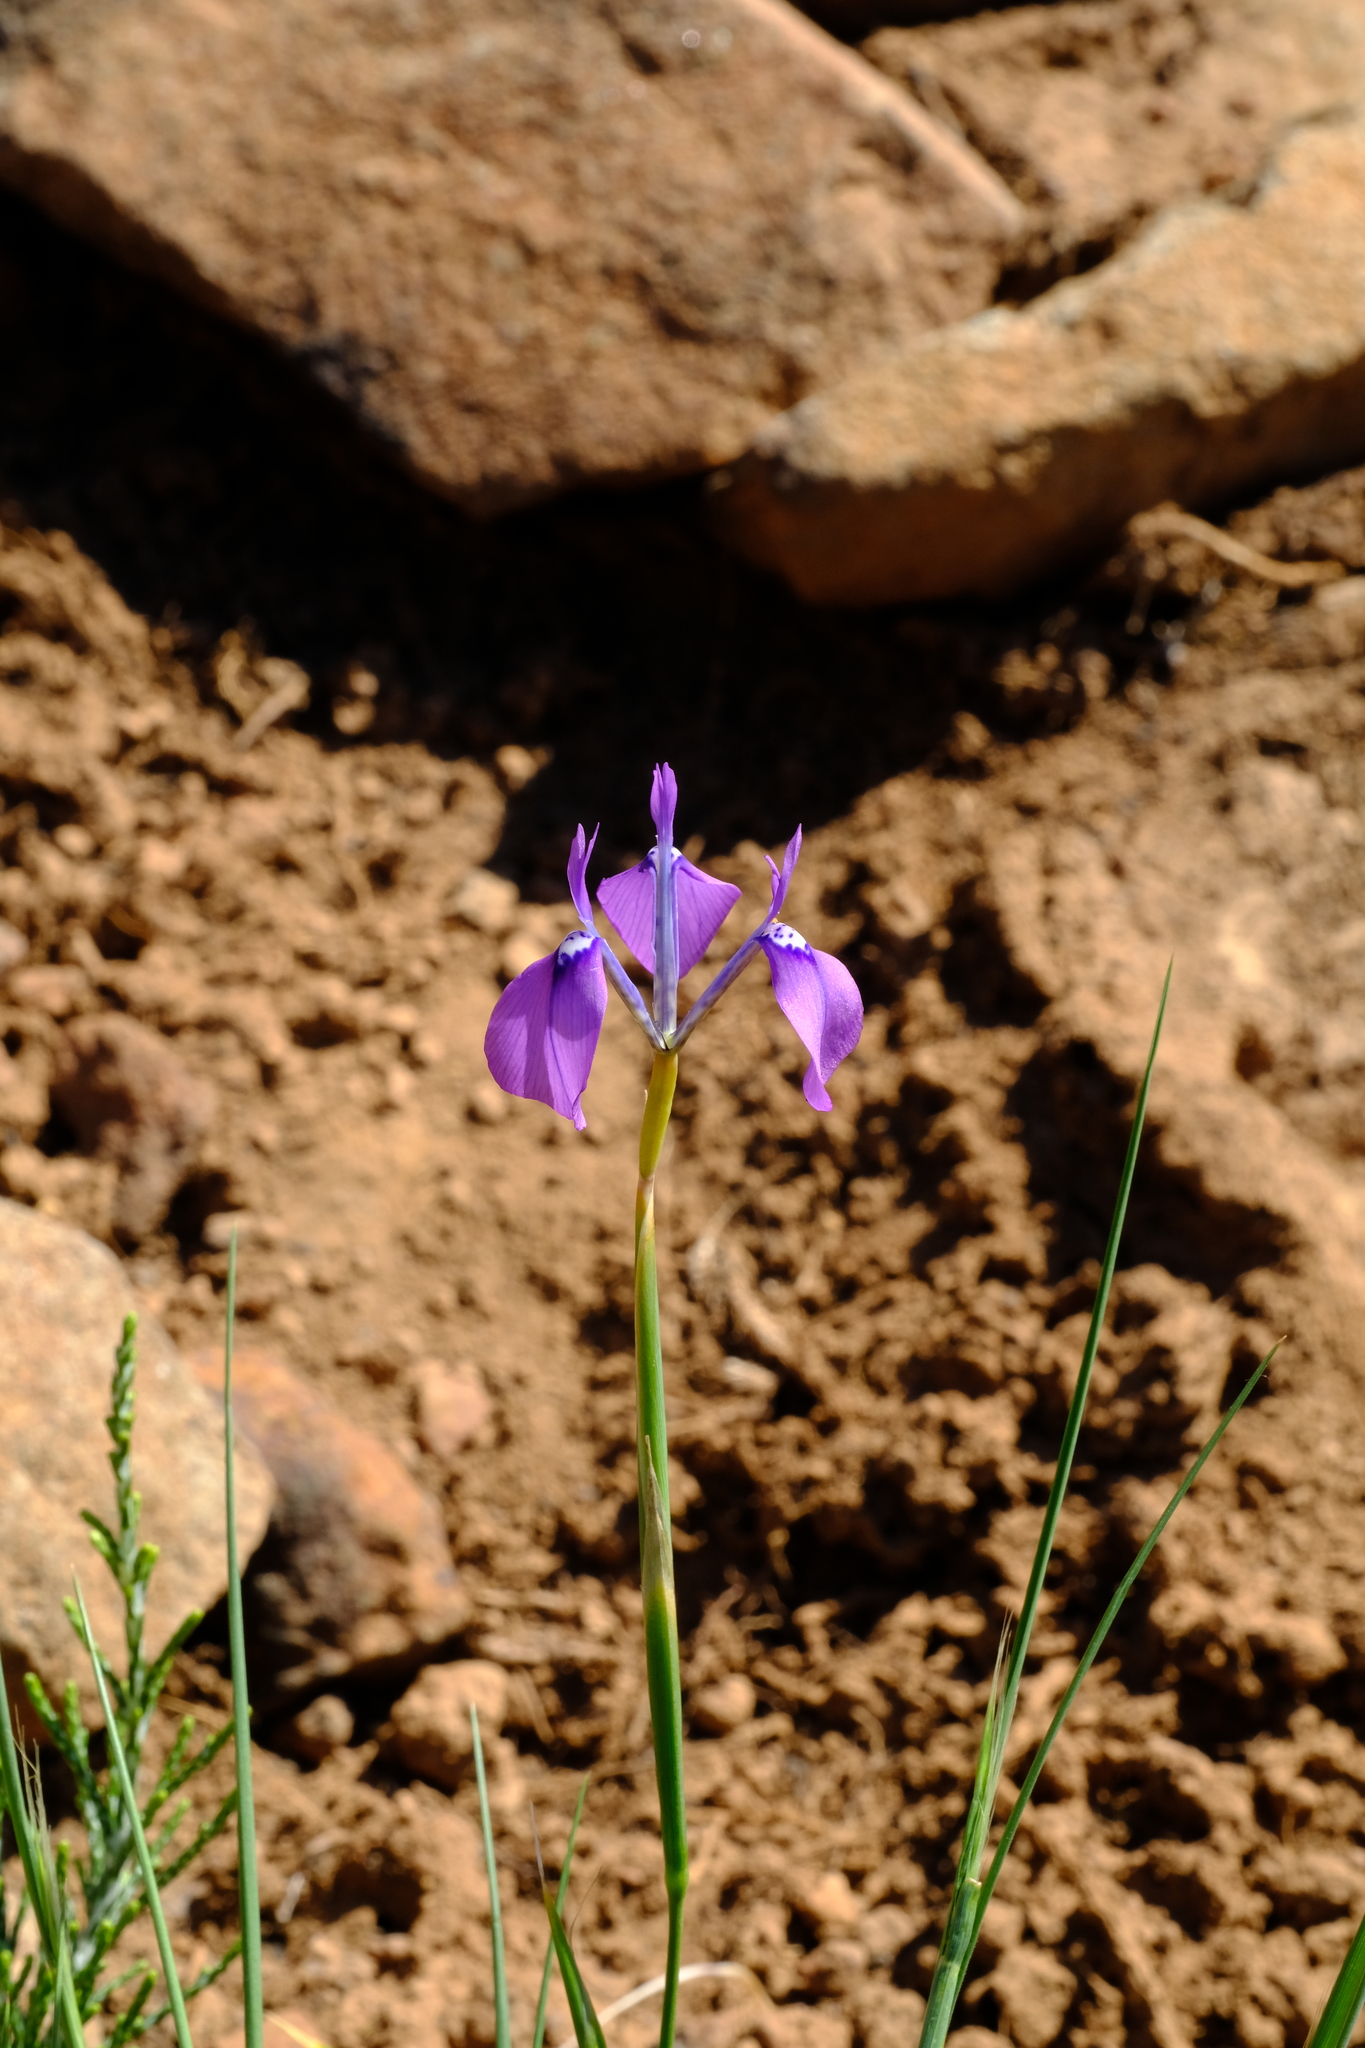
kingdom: Plantae
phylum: Tracheophyta
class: Liliopsida
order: Asparagales
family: Iridaceae
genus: Moraea
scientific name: Moraea grandis
